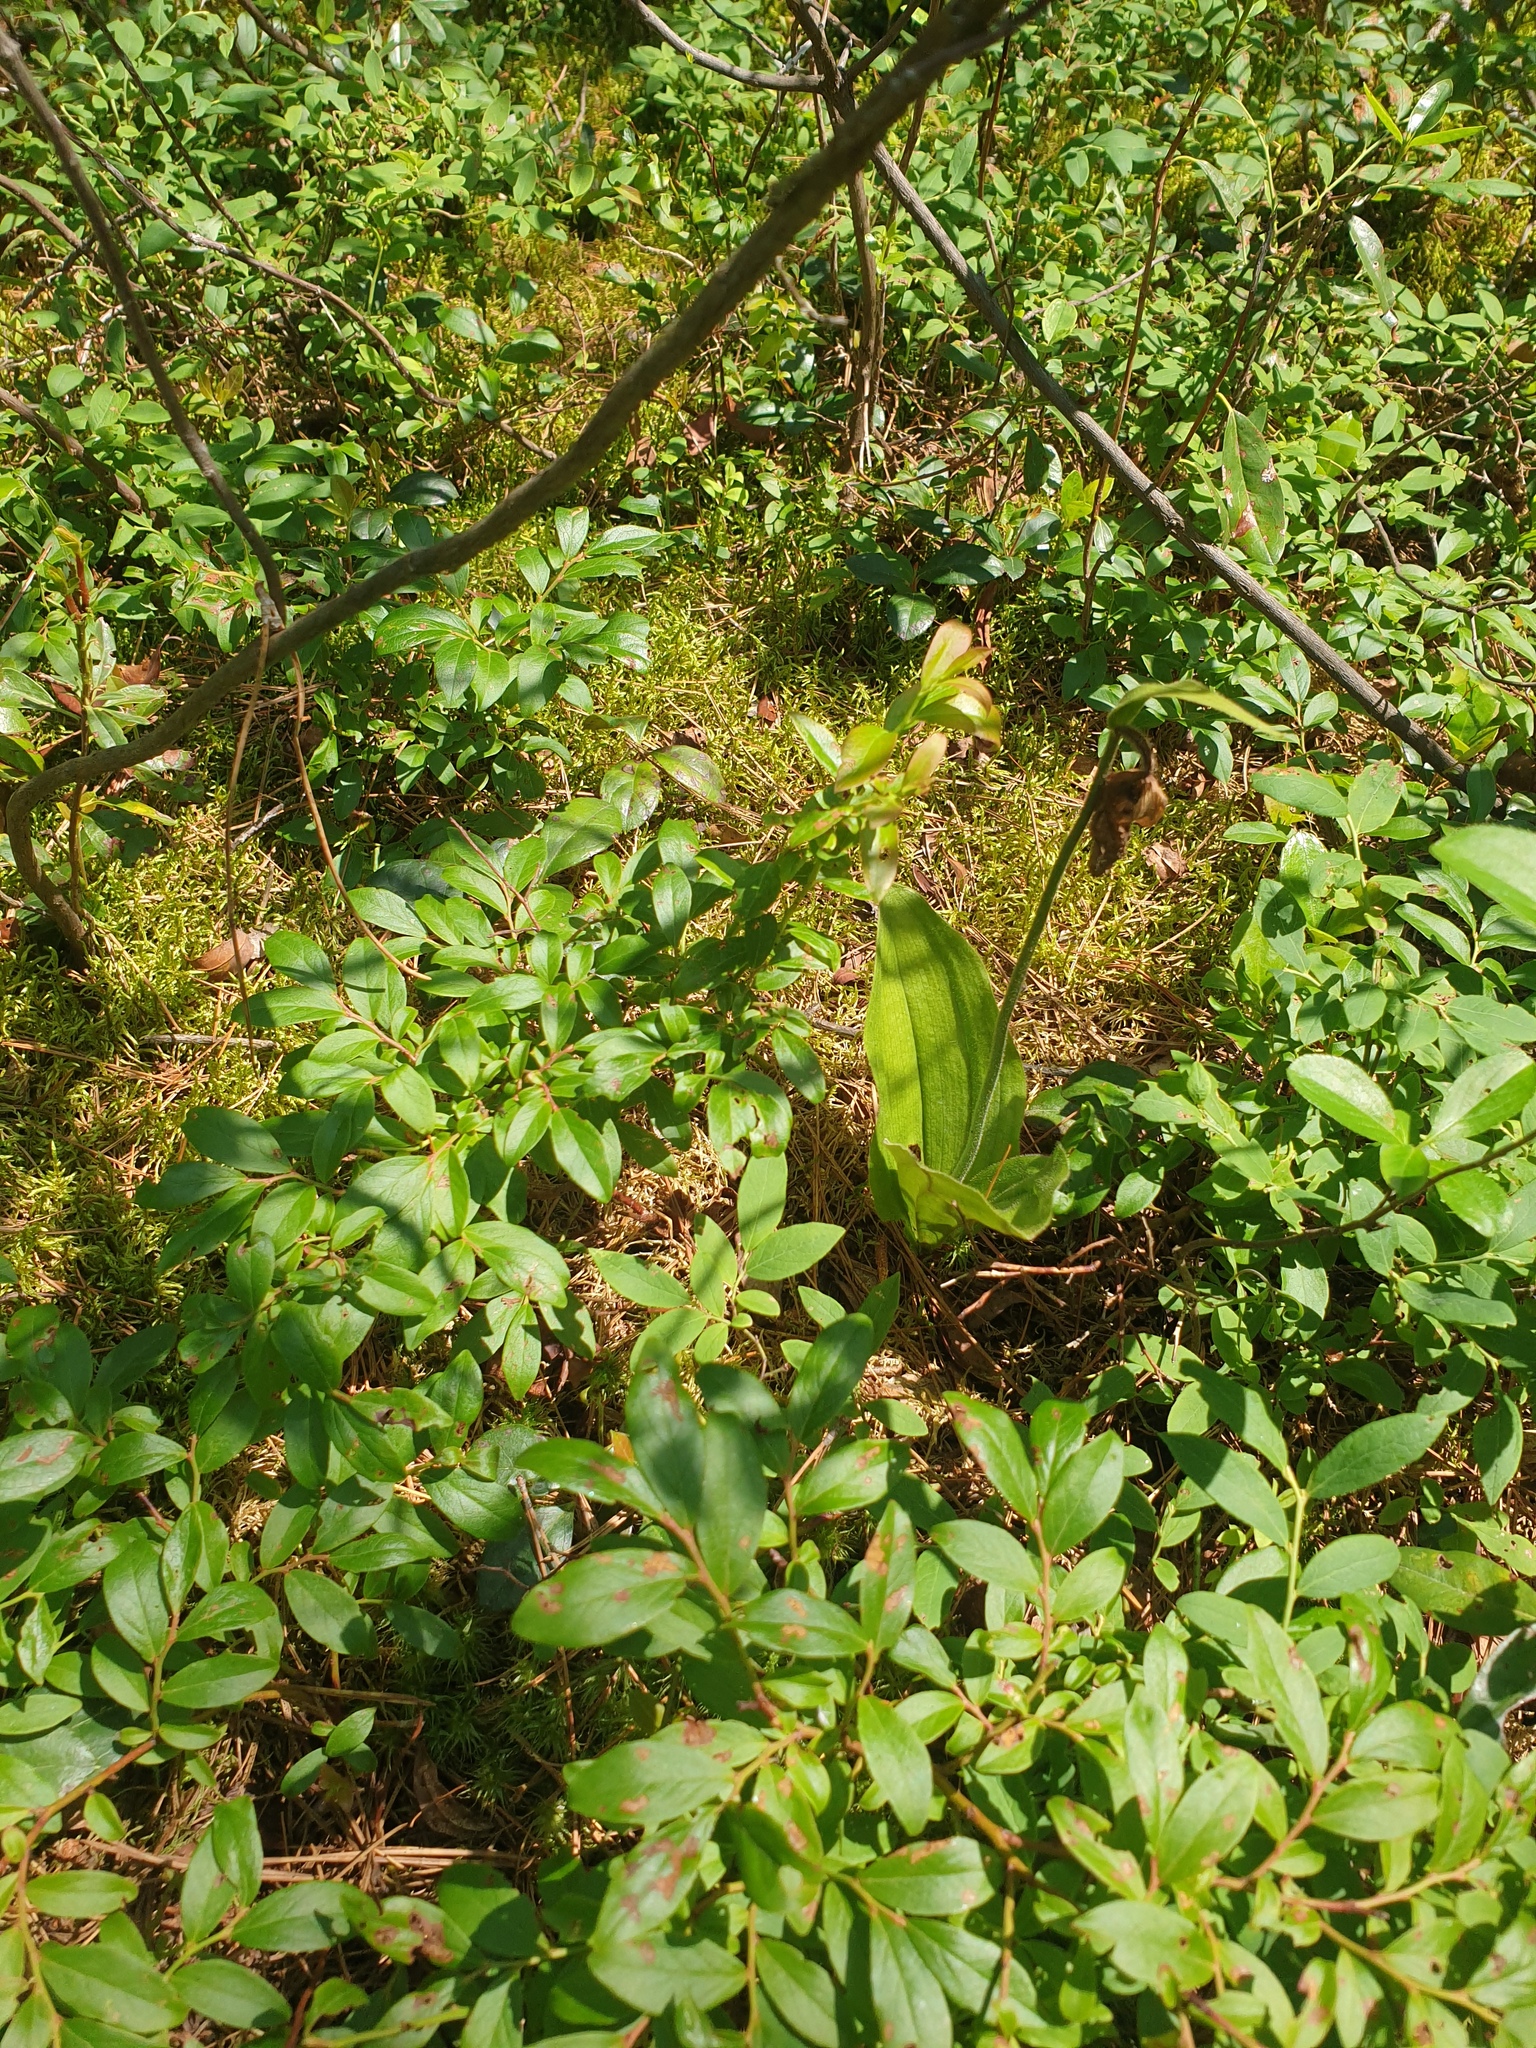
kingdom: Plantae
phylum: Tracheophyta
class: Magnoliopsida
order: Ericales
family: Ericaceae
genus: Vaccinium
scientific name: Vaccinium angustifolium
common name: Early lowbush blueberry
